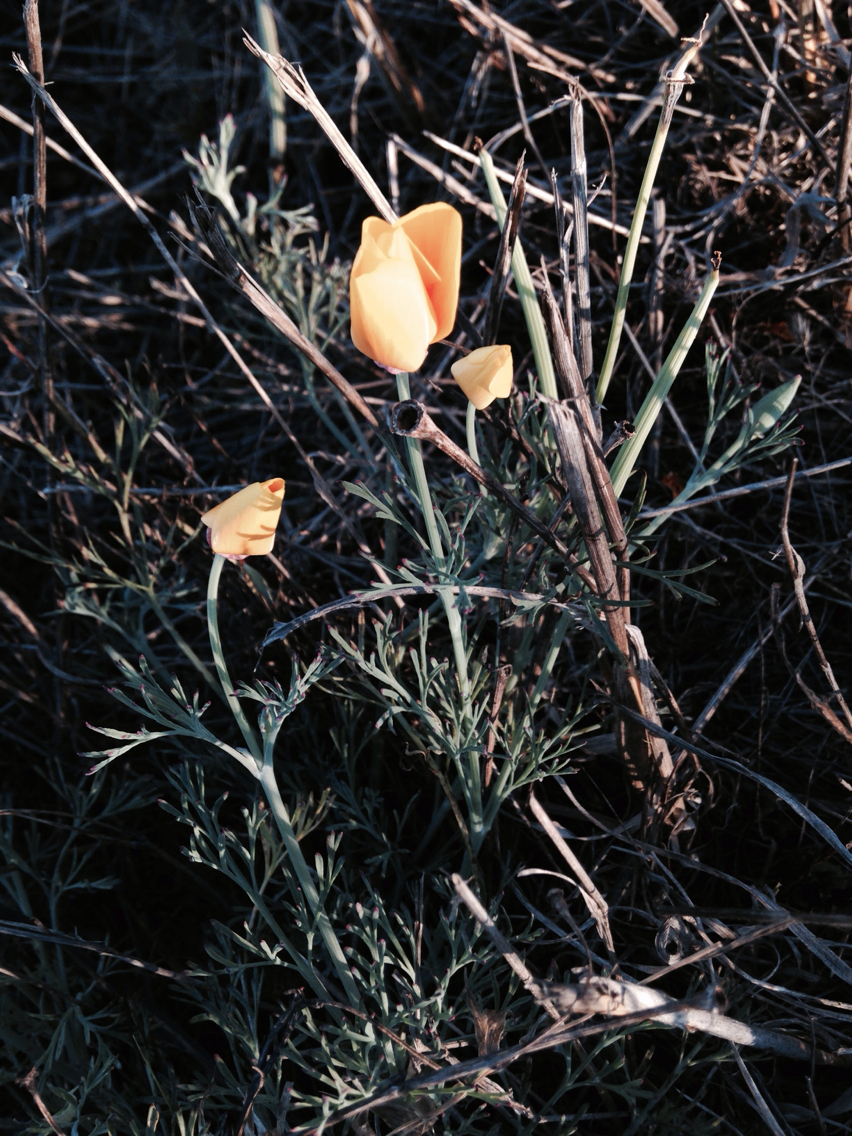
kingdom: Plantae
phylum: Tracheophyta
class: Magnoliopsida
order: Ranunculales
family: Papaveraceae
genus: Eschscholzia
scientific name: Eschscholzia californica
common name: California poppy
